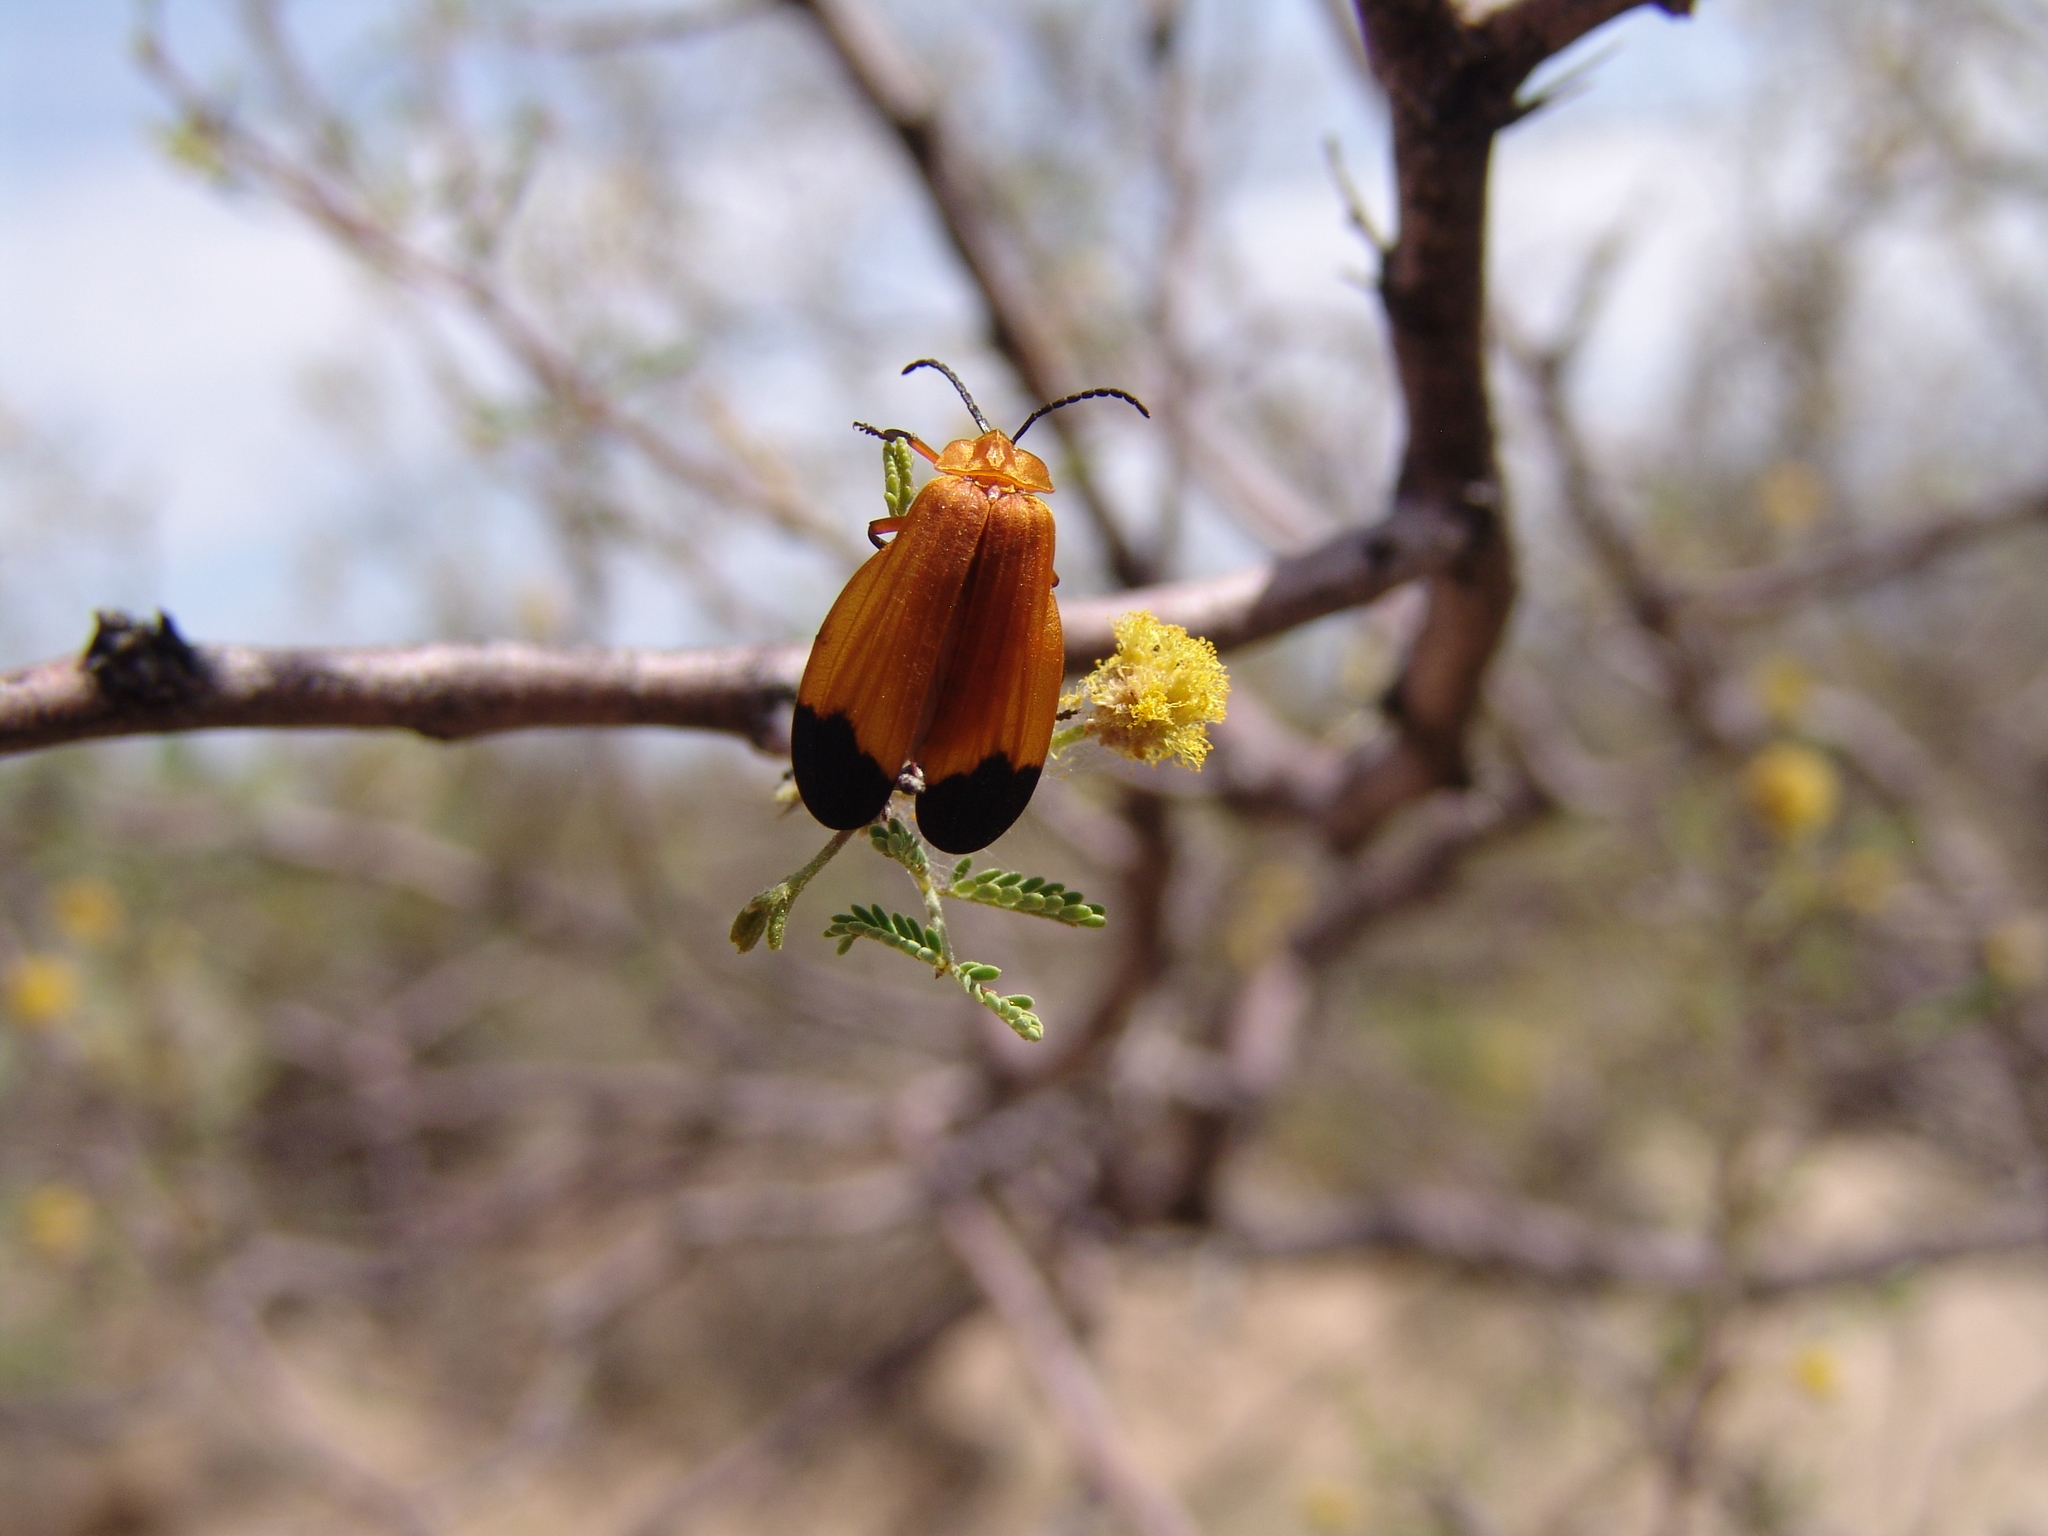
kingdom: Animalia
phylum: Arthropoda
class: Insecta
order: Coleoptera
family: Lycidae
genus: Lycus
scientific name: Lycus fernandezi
